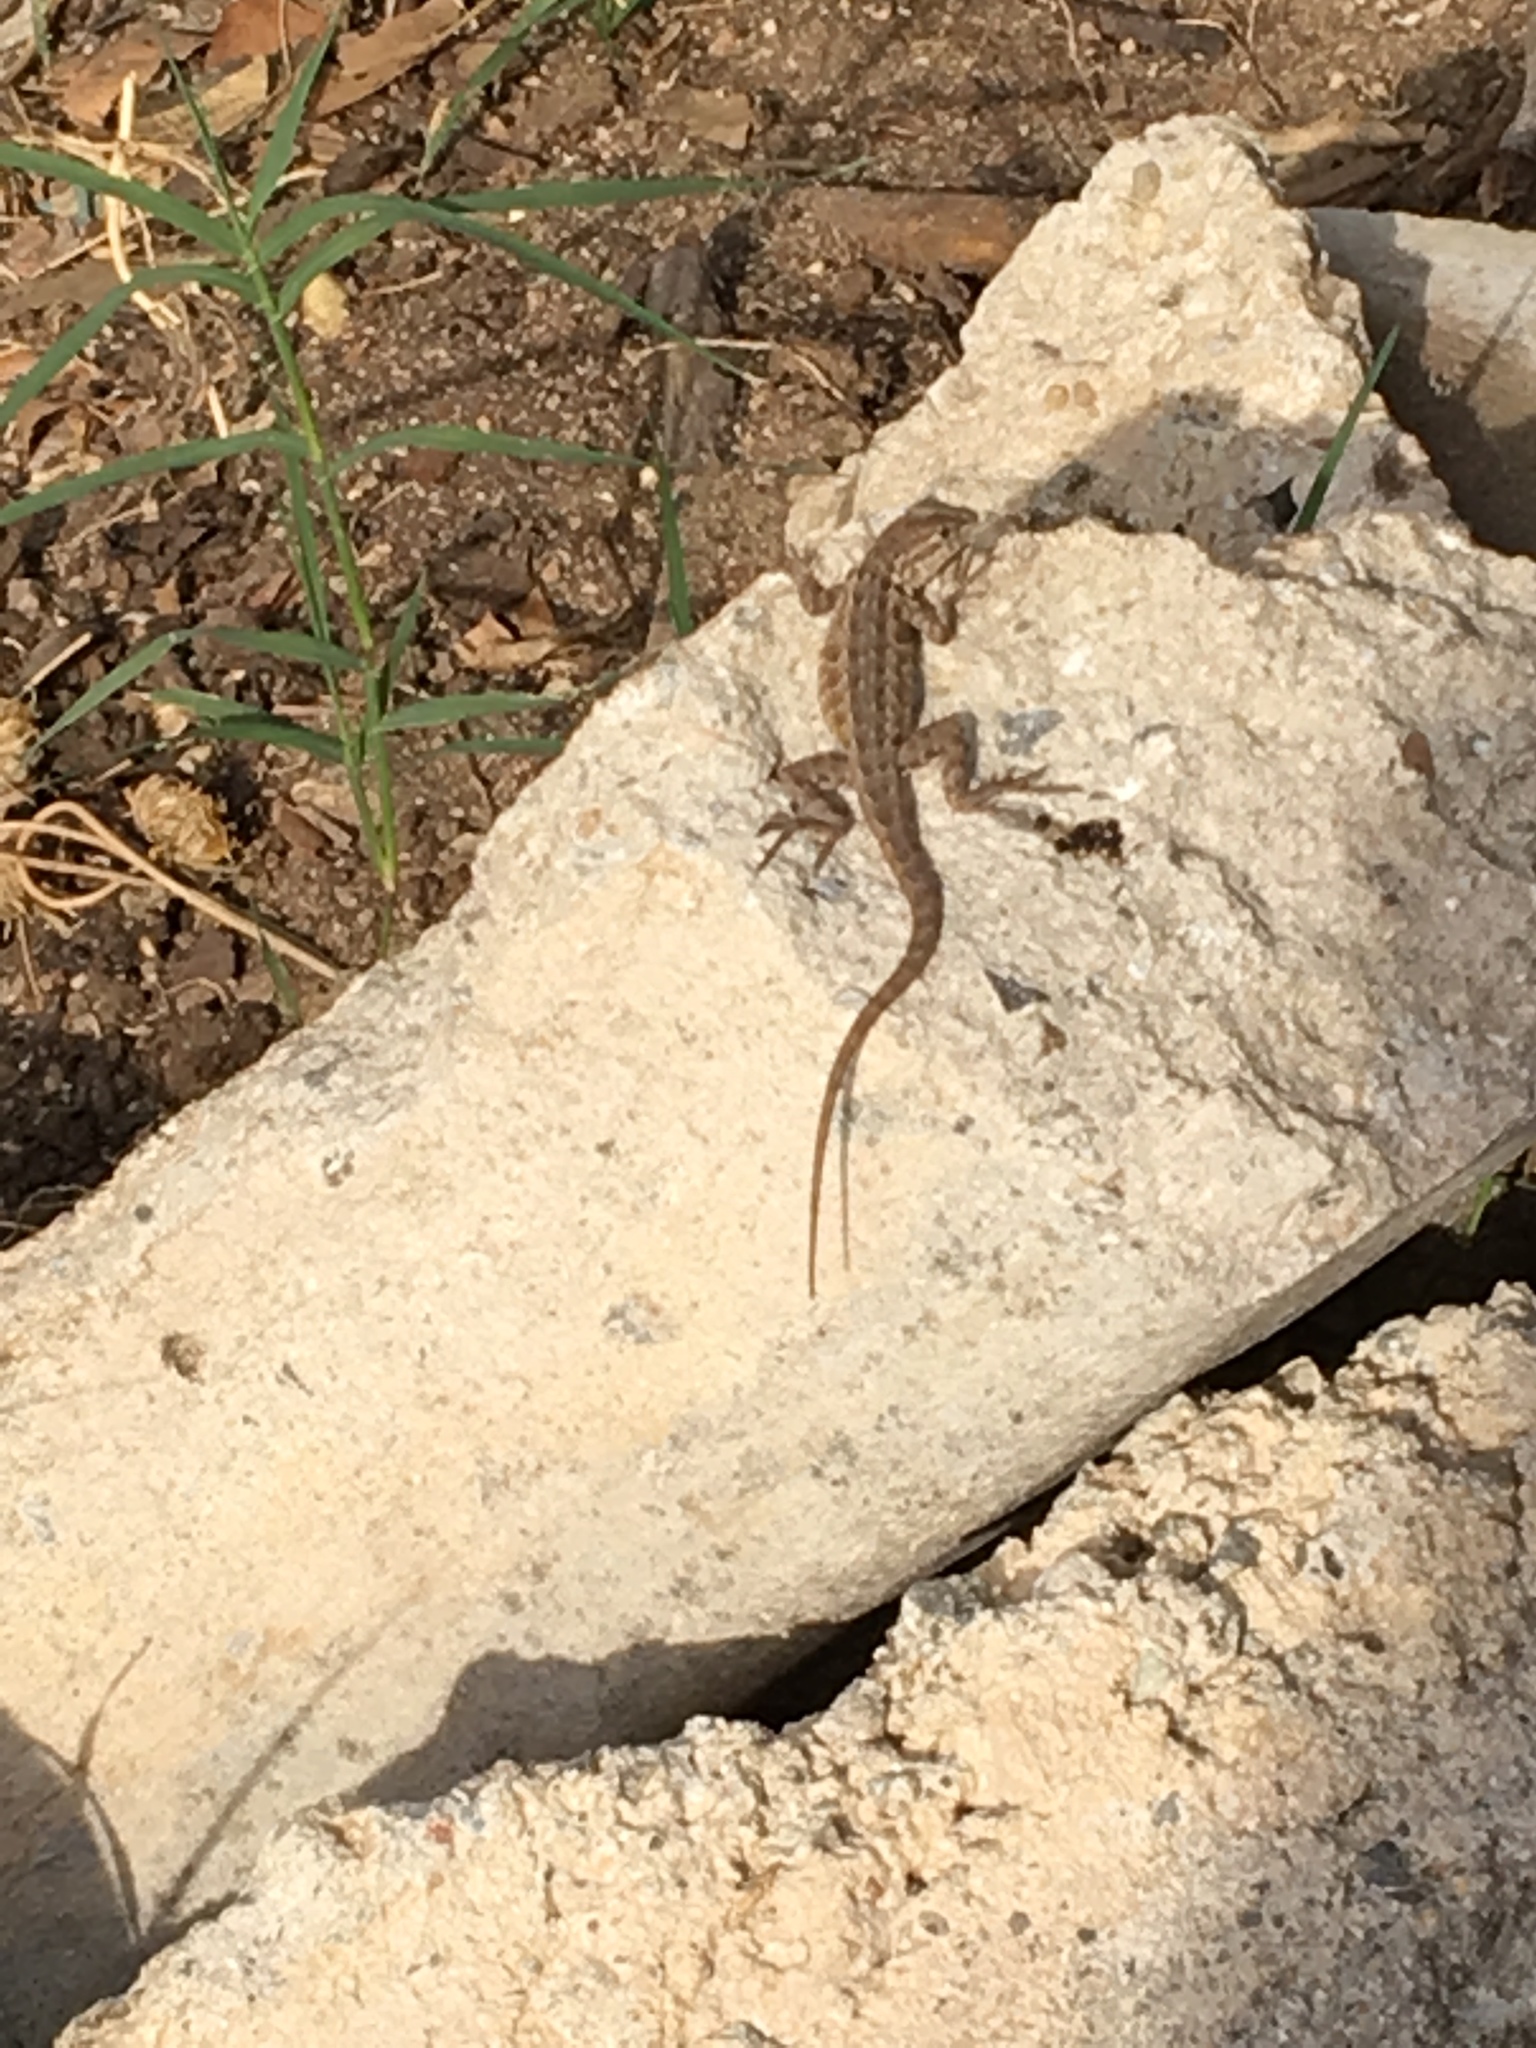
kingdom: Animalia
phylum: Chordata
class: Squamata
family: Phrynosomatidae
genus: Uta
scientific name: Uta stansburiana
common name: Side-blotched lizard
